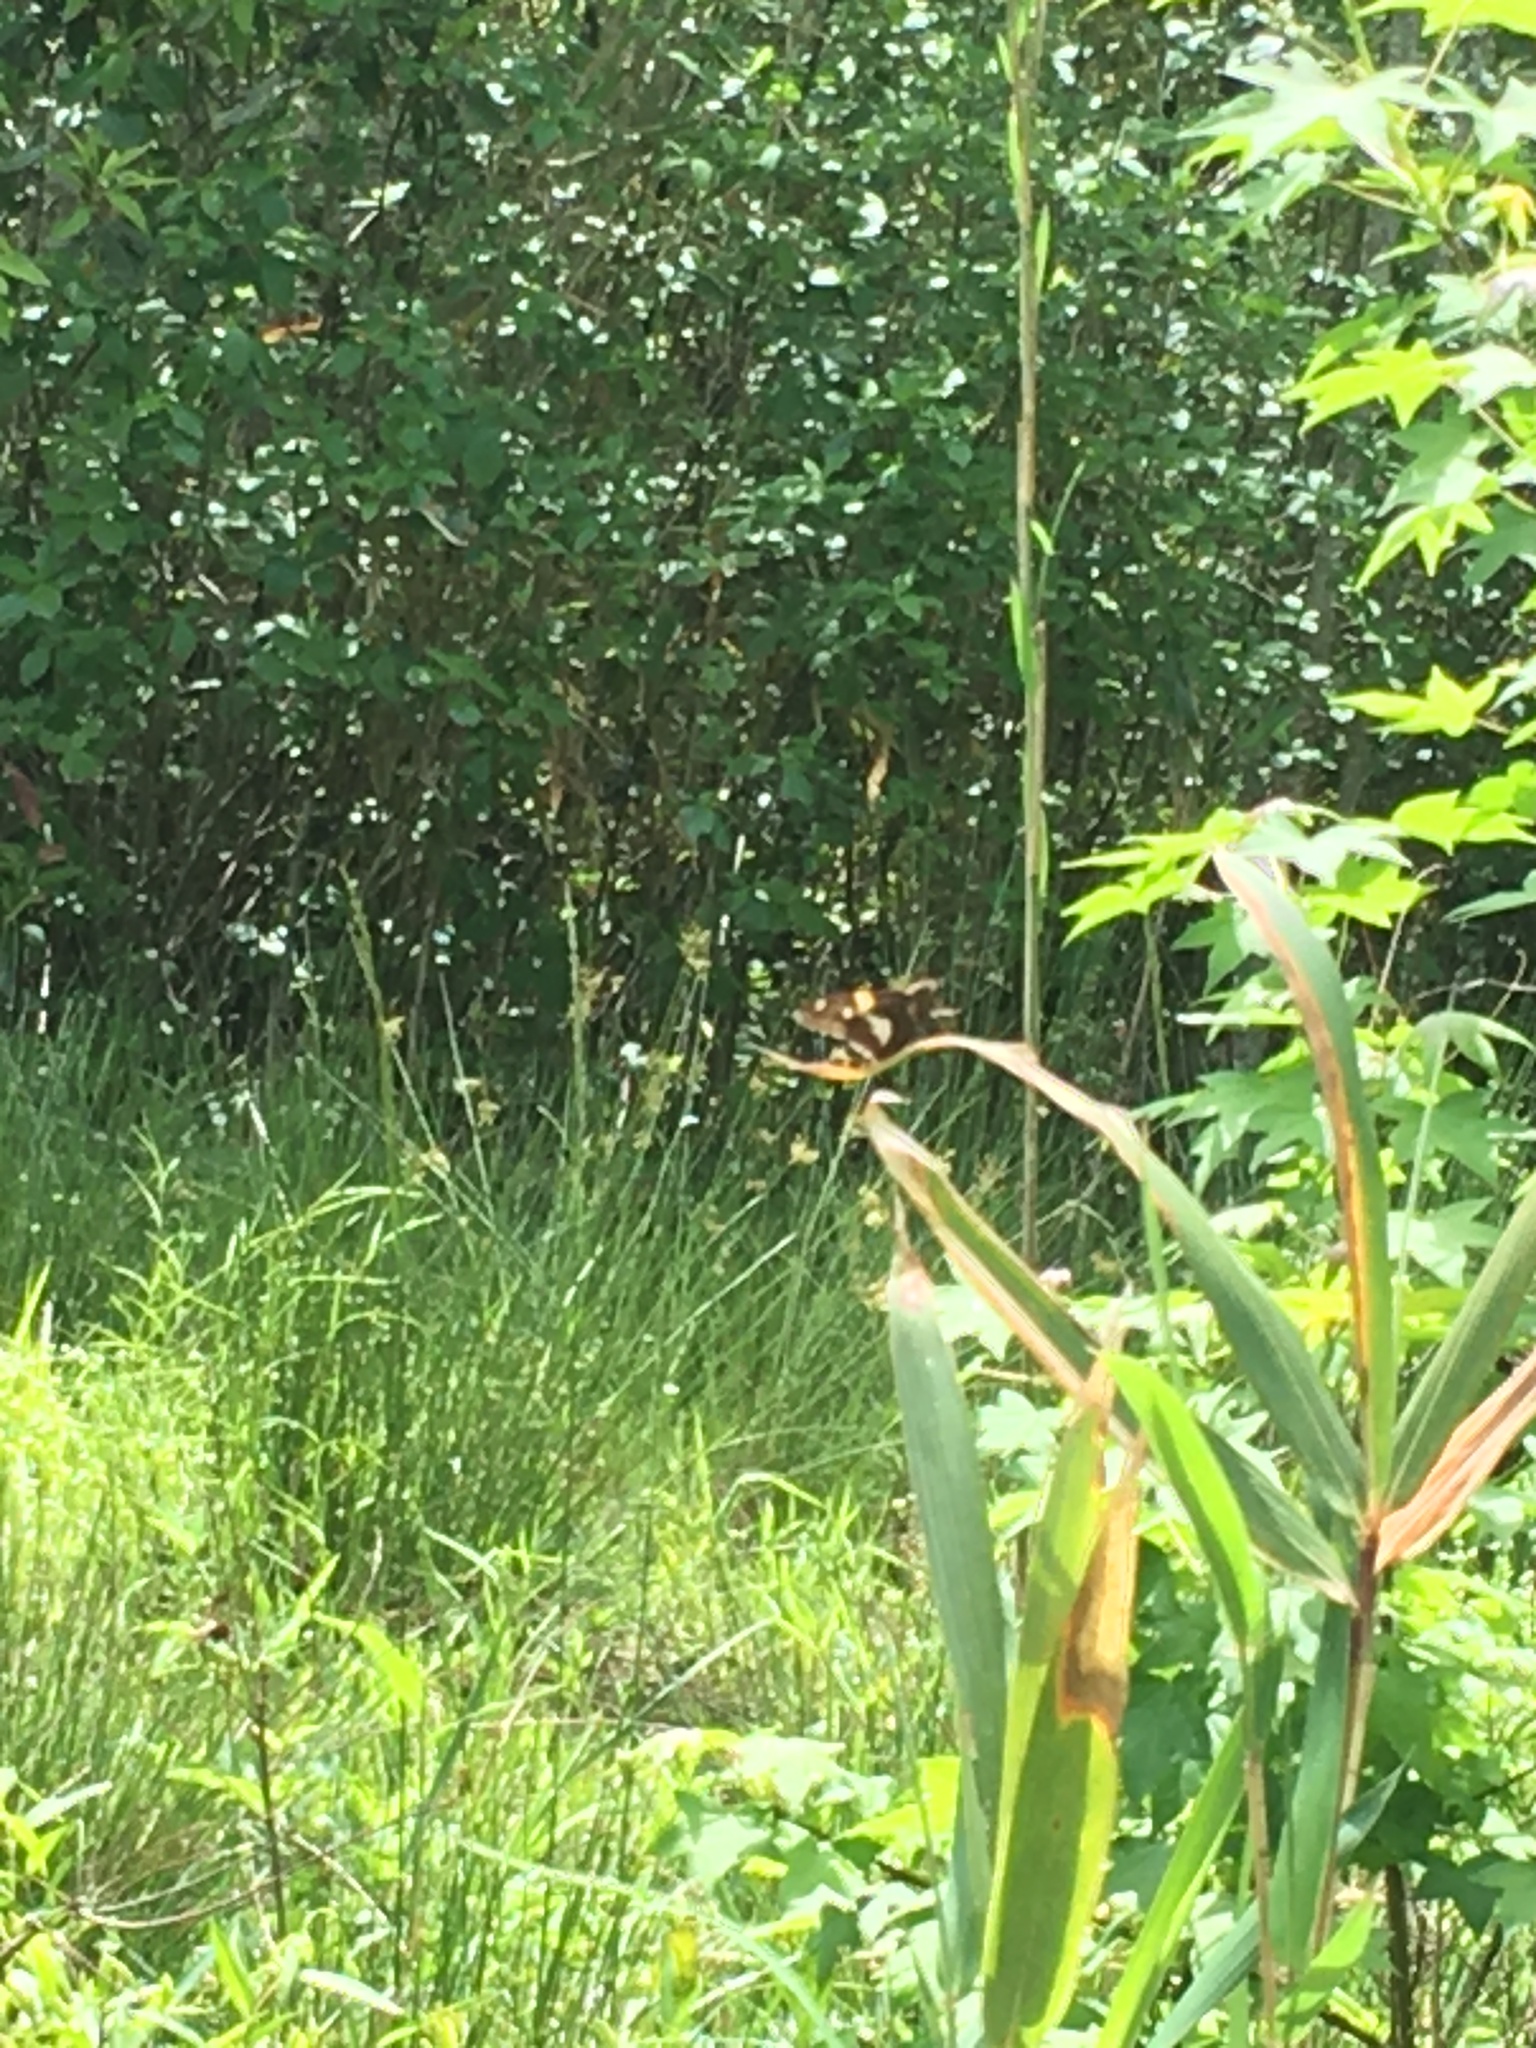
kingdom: Animalia
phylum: Arthropoda
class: Insecta
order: Lepidoptera
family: Hesperiidae
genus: Epargyreus
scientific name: Epargyreus clarus
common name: Silver-spotted skipper
